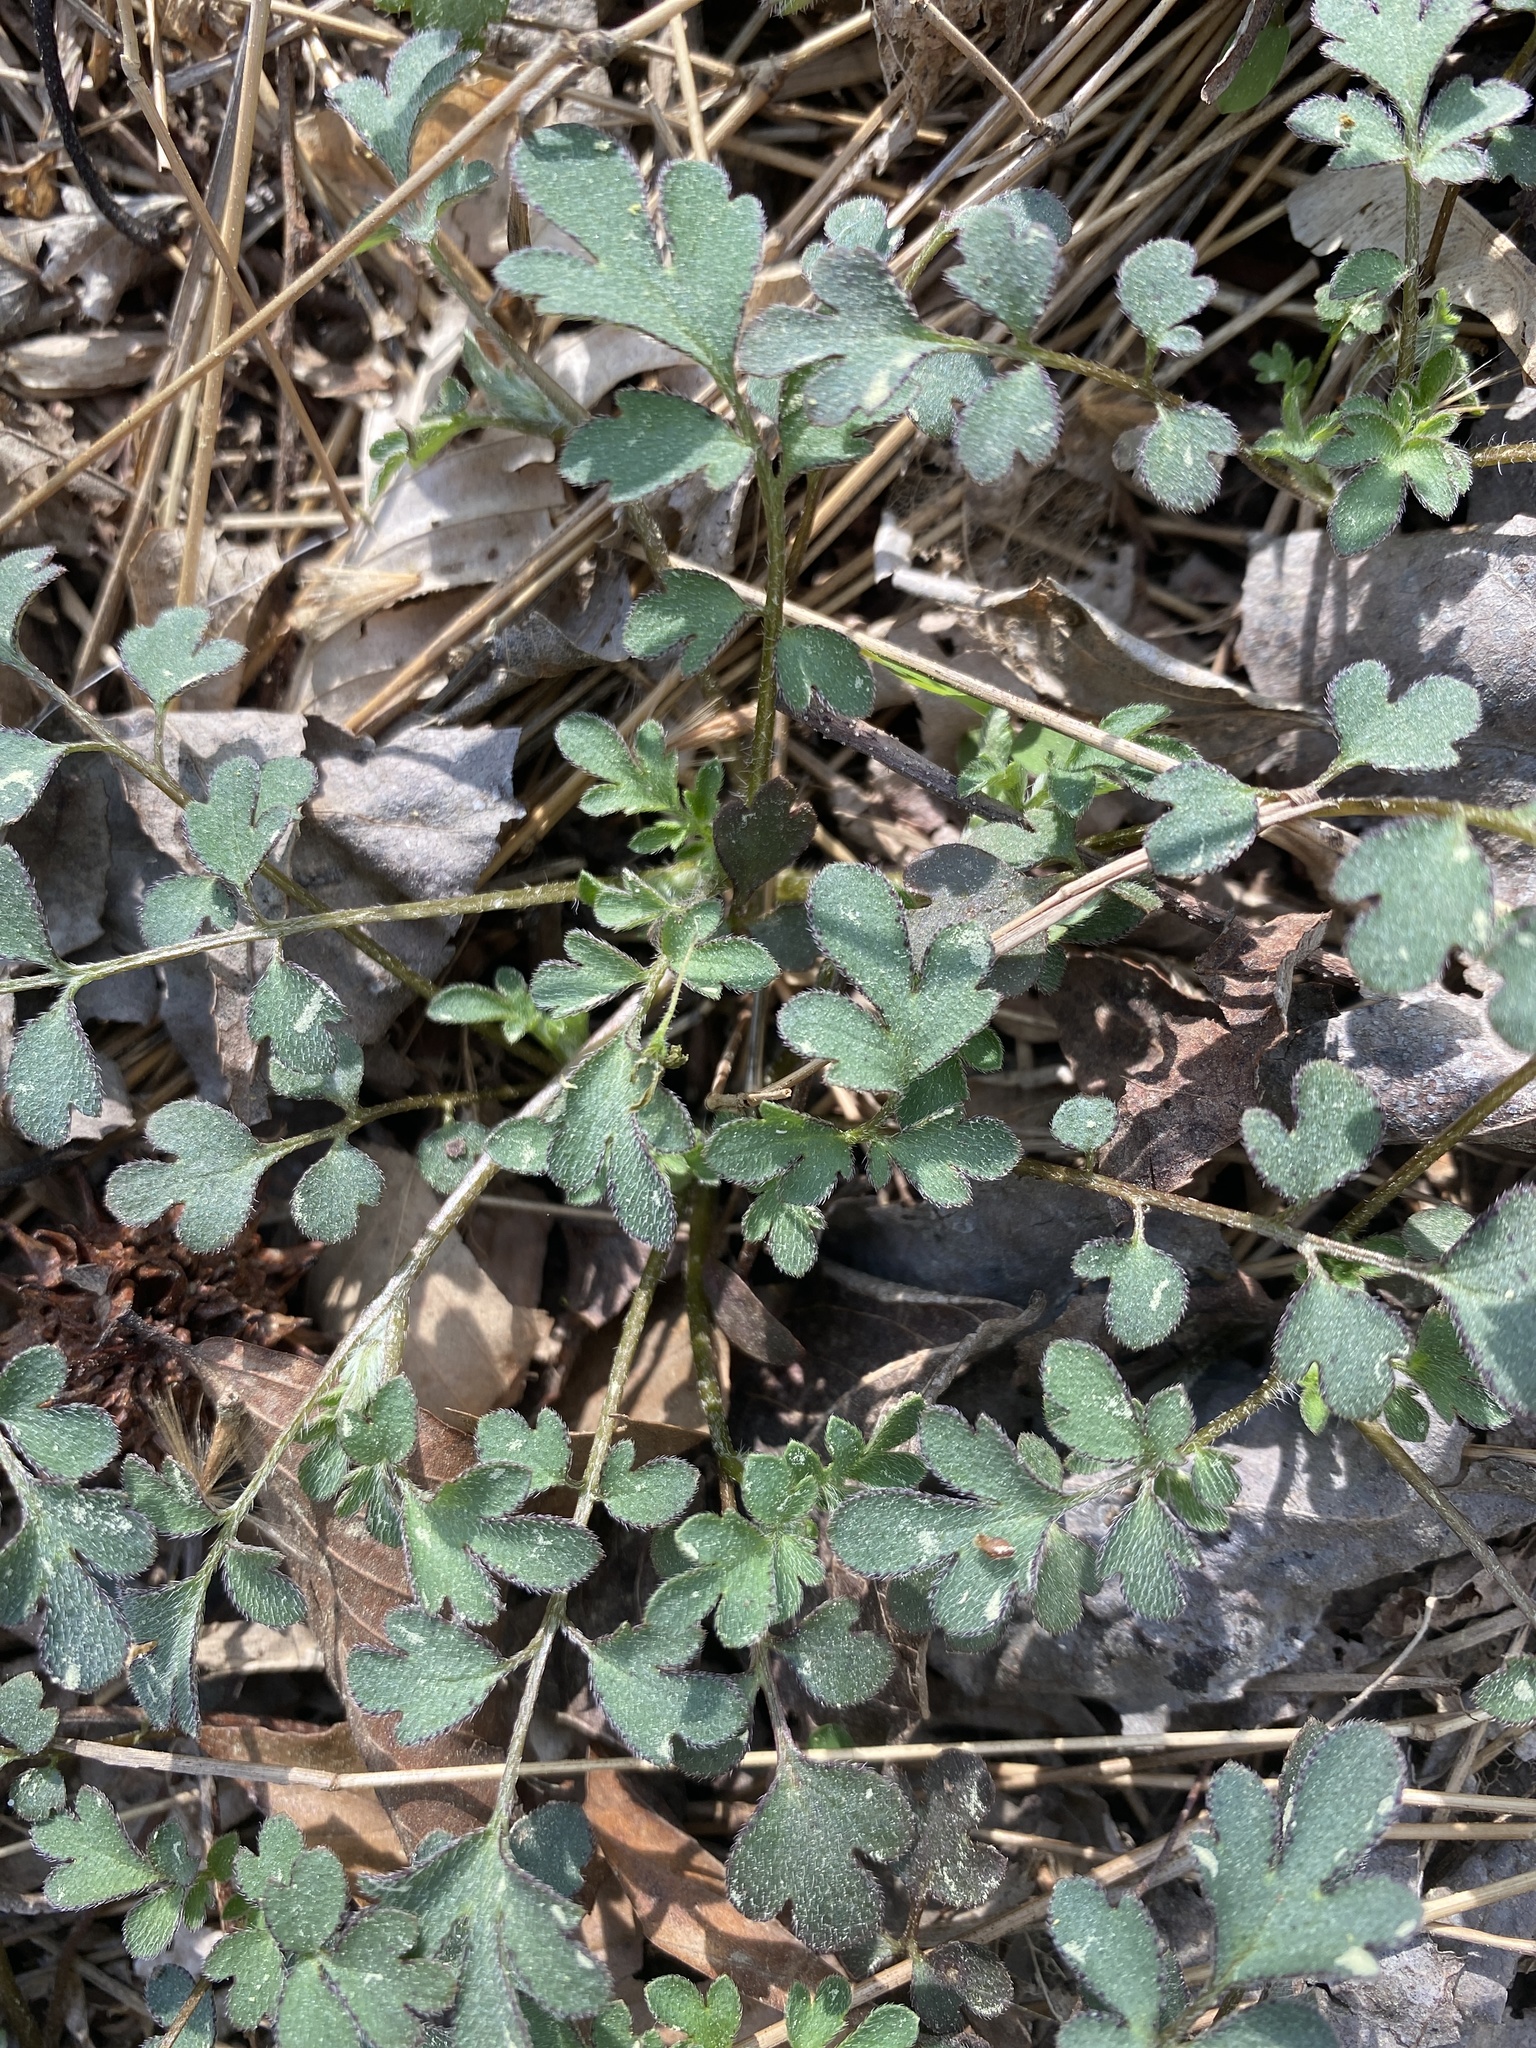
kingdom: Plantae
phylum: Tracheophyta
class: Magnoliopsida
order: Boraginales
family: Hydrophyllaceae
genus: Phacelia
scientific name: Phacelia covillei
